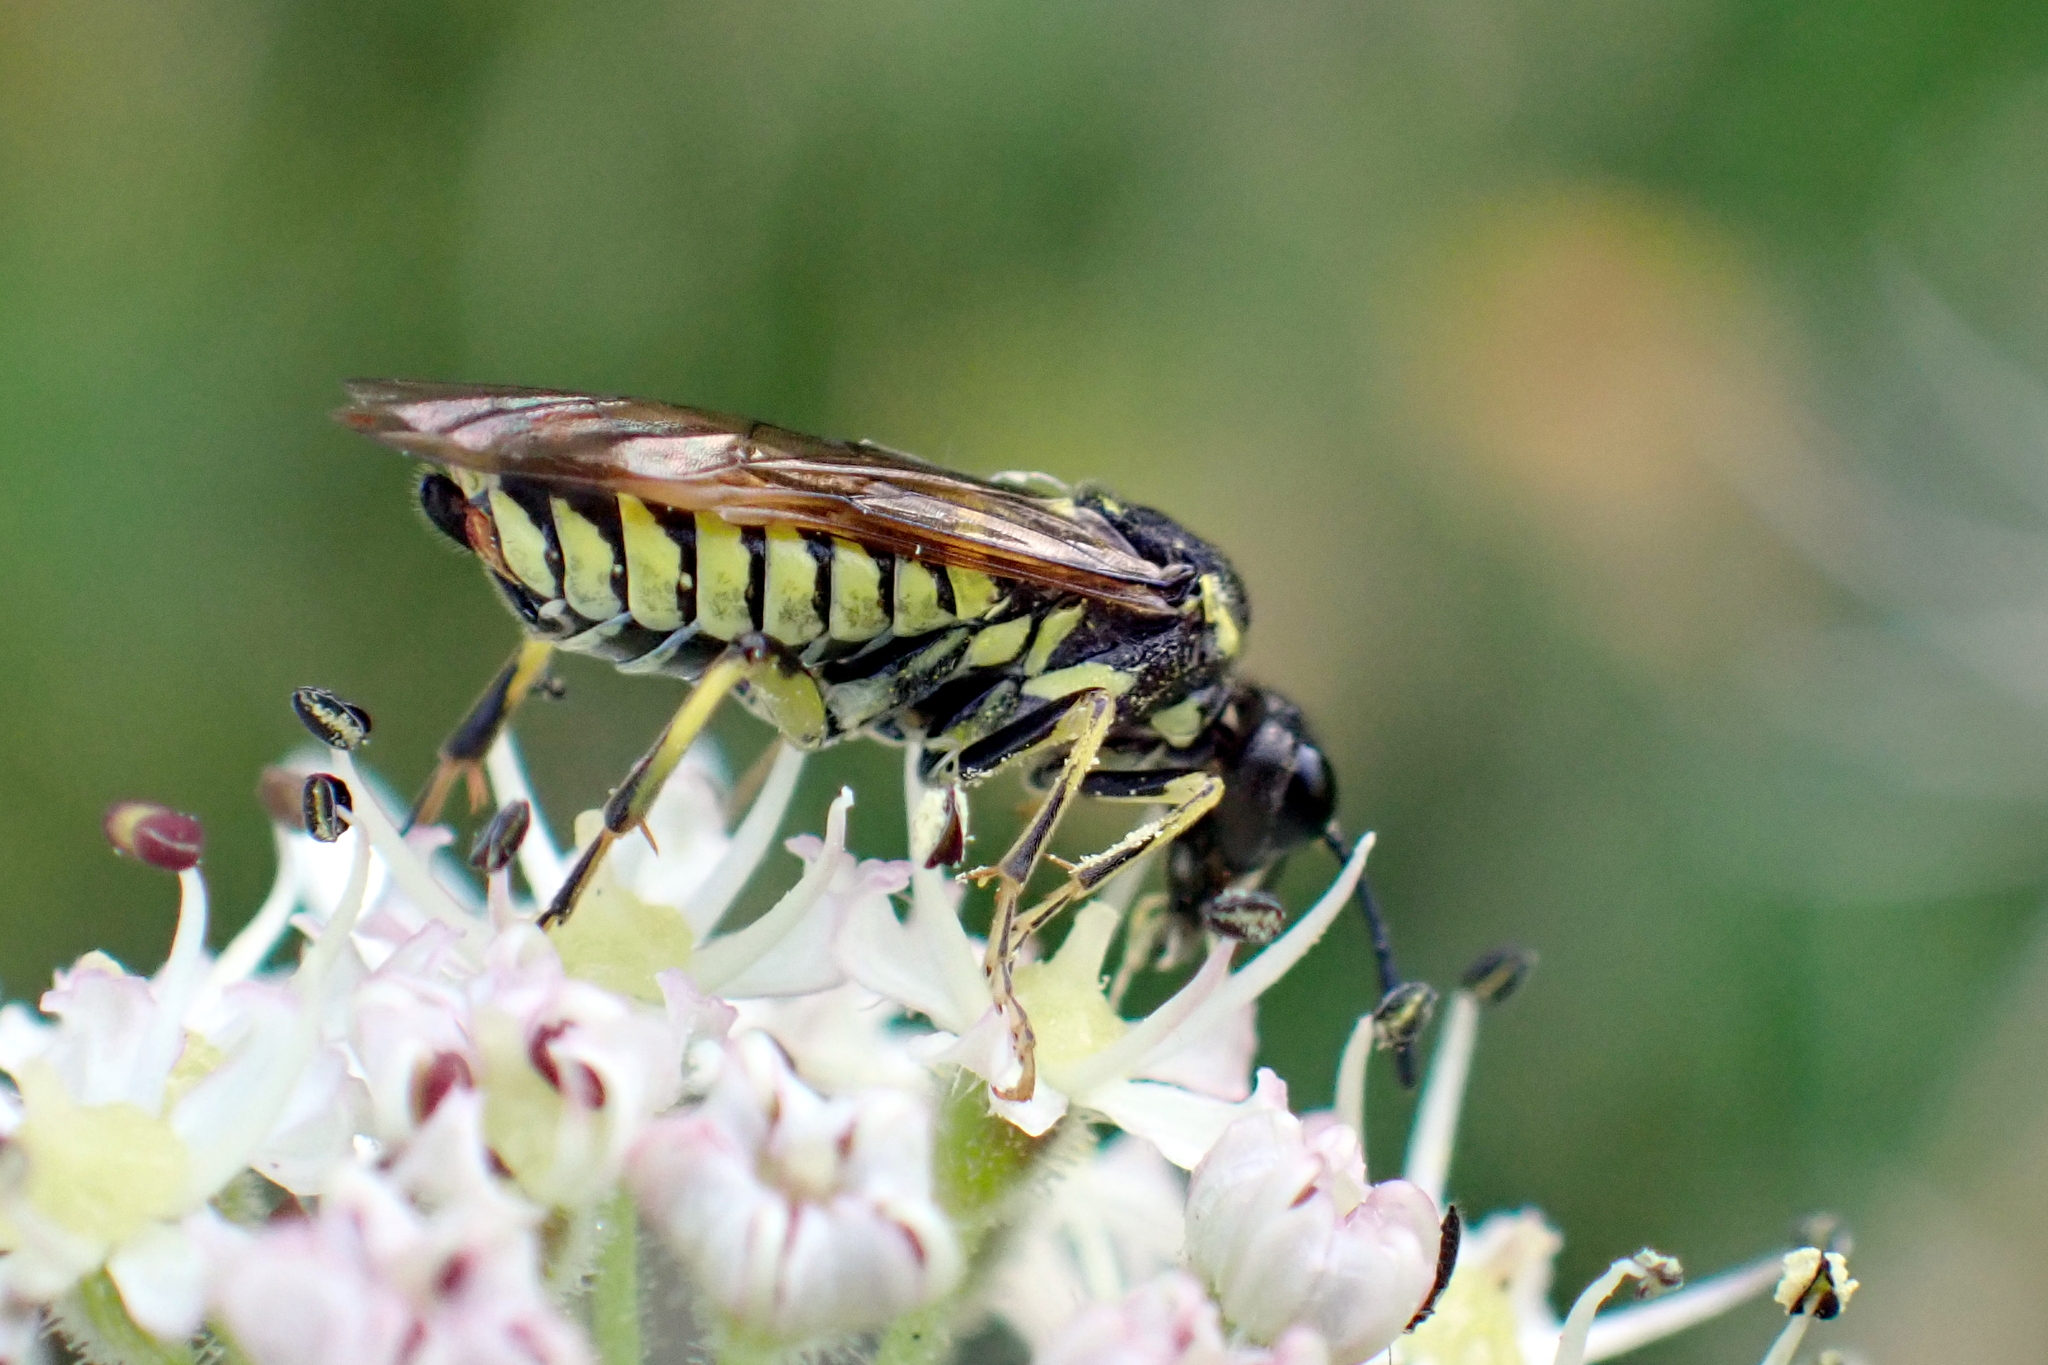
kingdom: Animalia
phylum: Arthropoda
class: Insecta
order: Hymenoptera
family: Tenthredinidae
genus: Tenthredo
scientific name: Tenthredo notha
